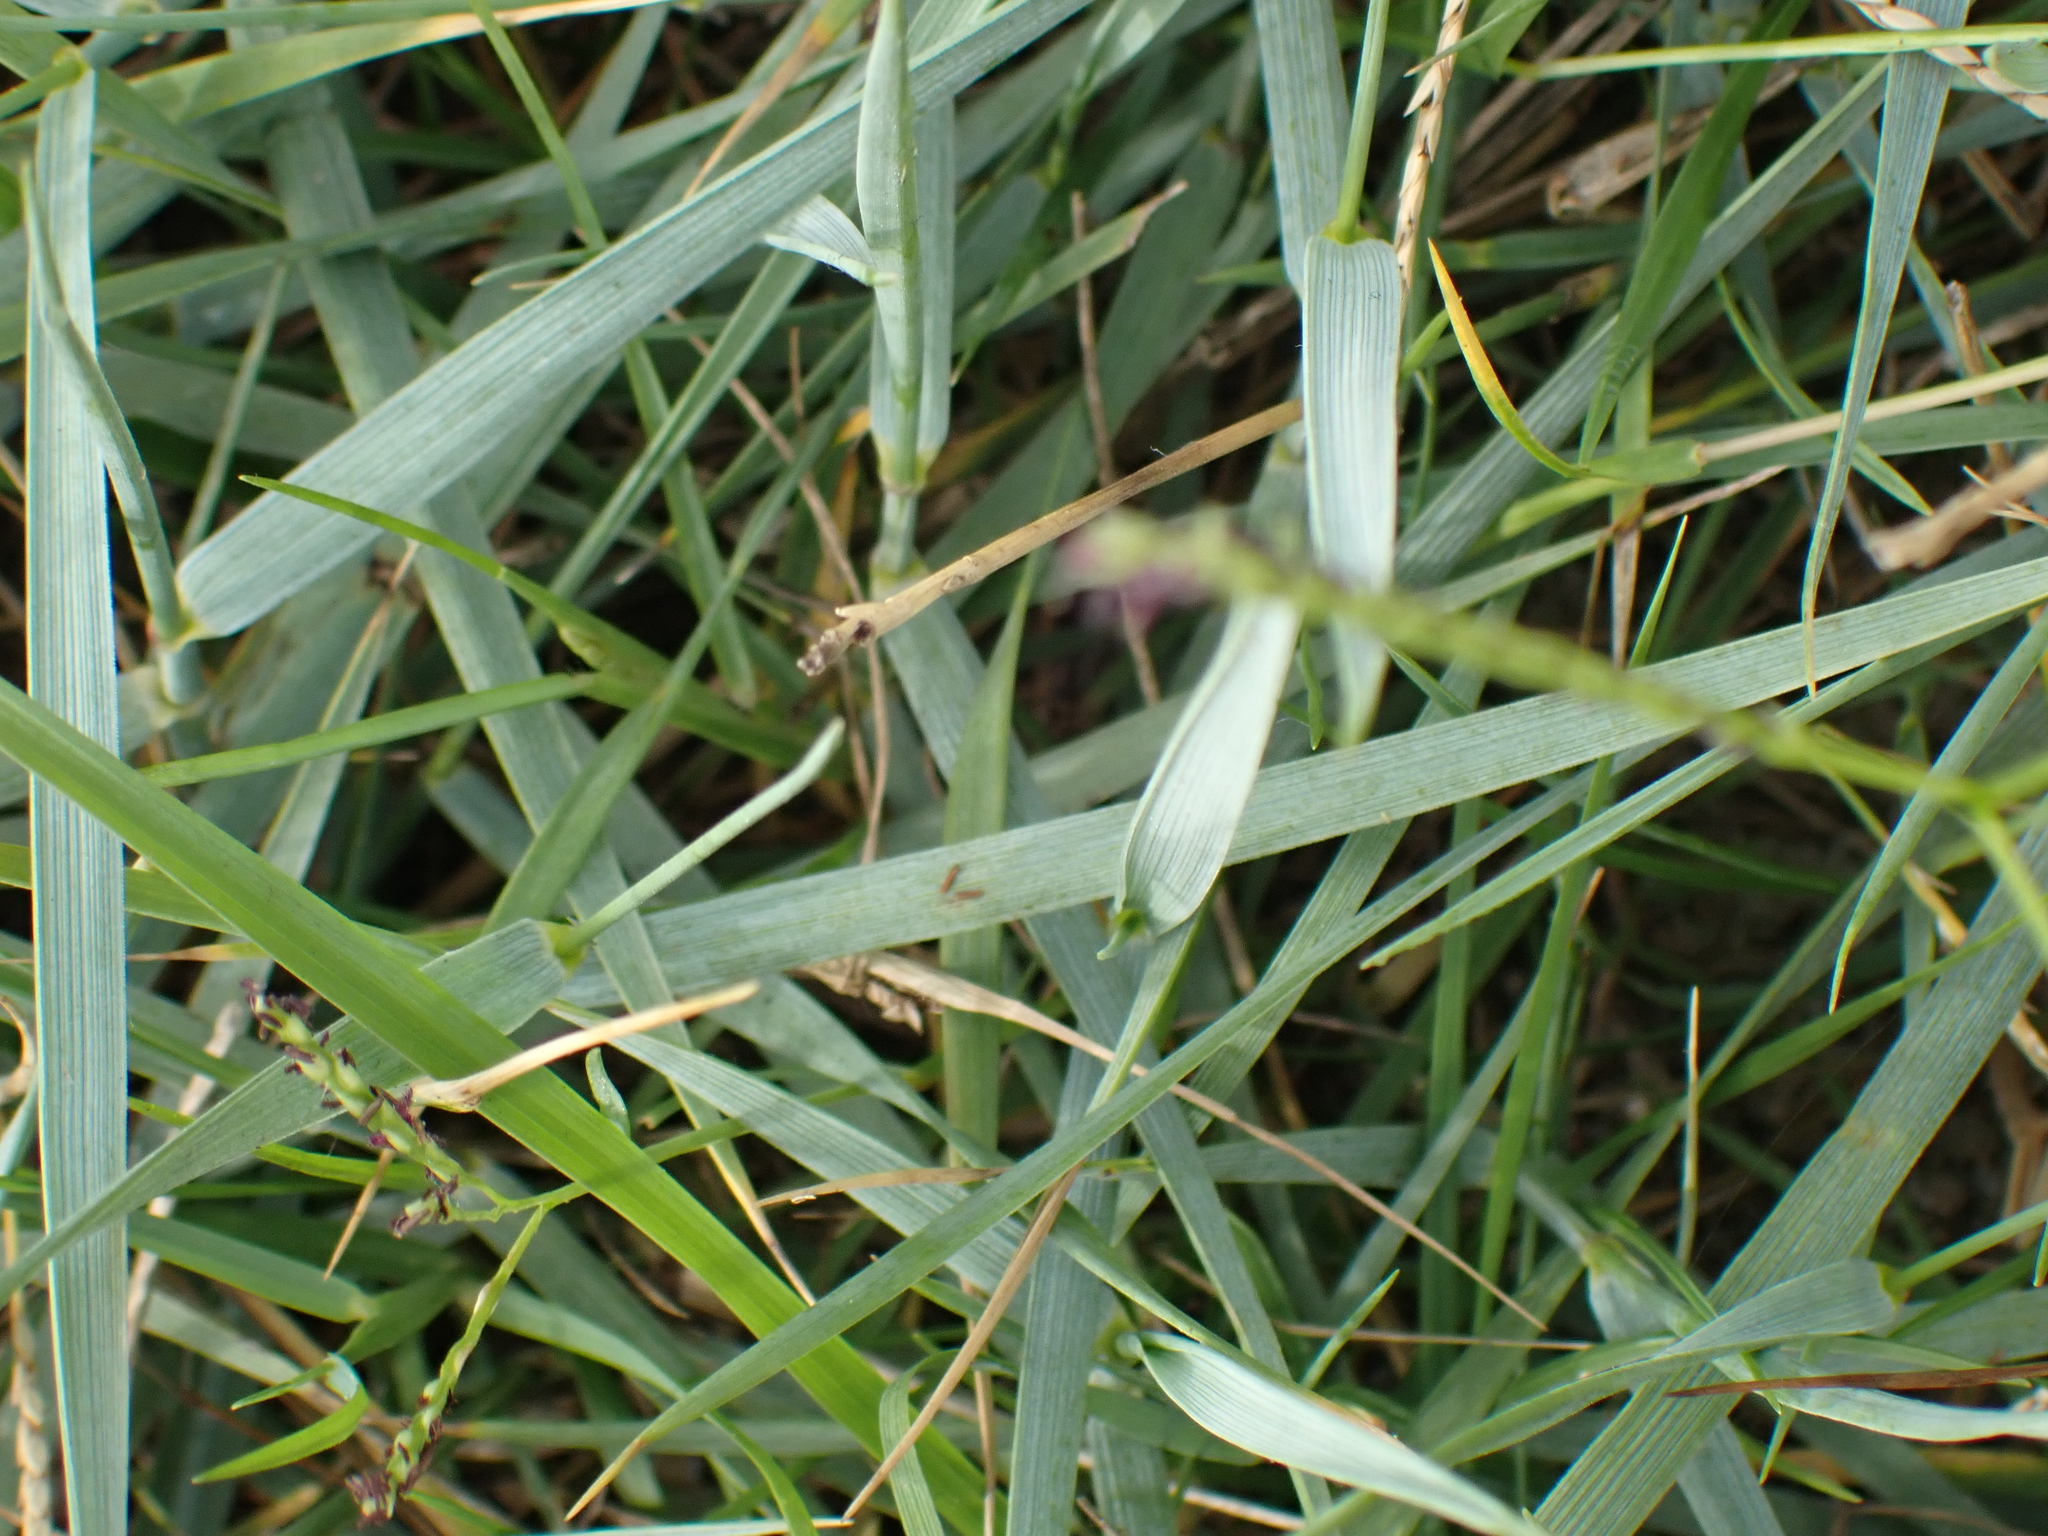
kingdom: Plantae
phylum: Tracheophyta
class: Liliopsida
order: Poales
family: Poaceae
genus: Elymus
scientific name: Elymus athericus
